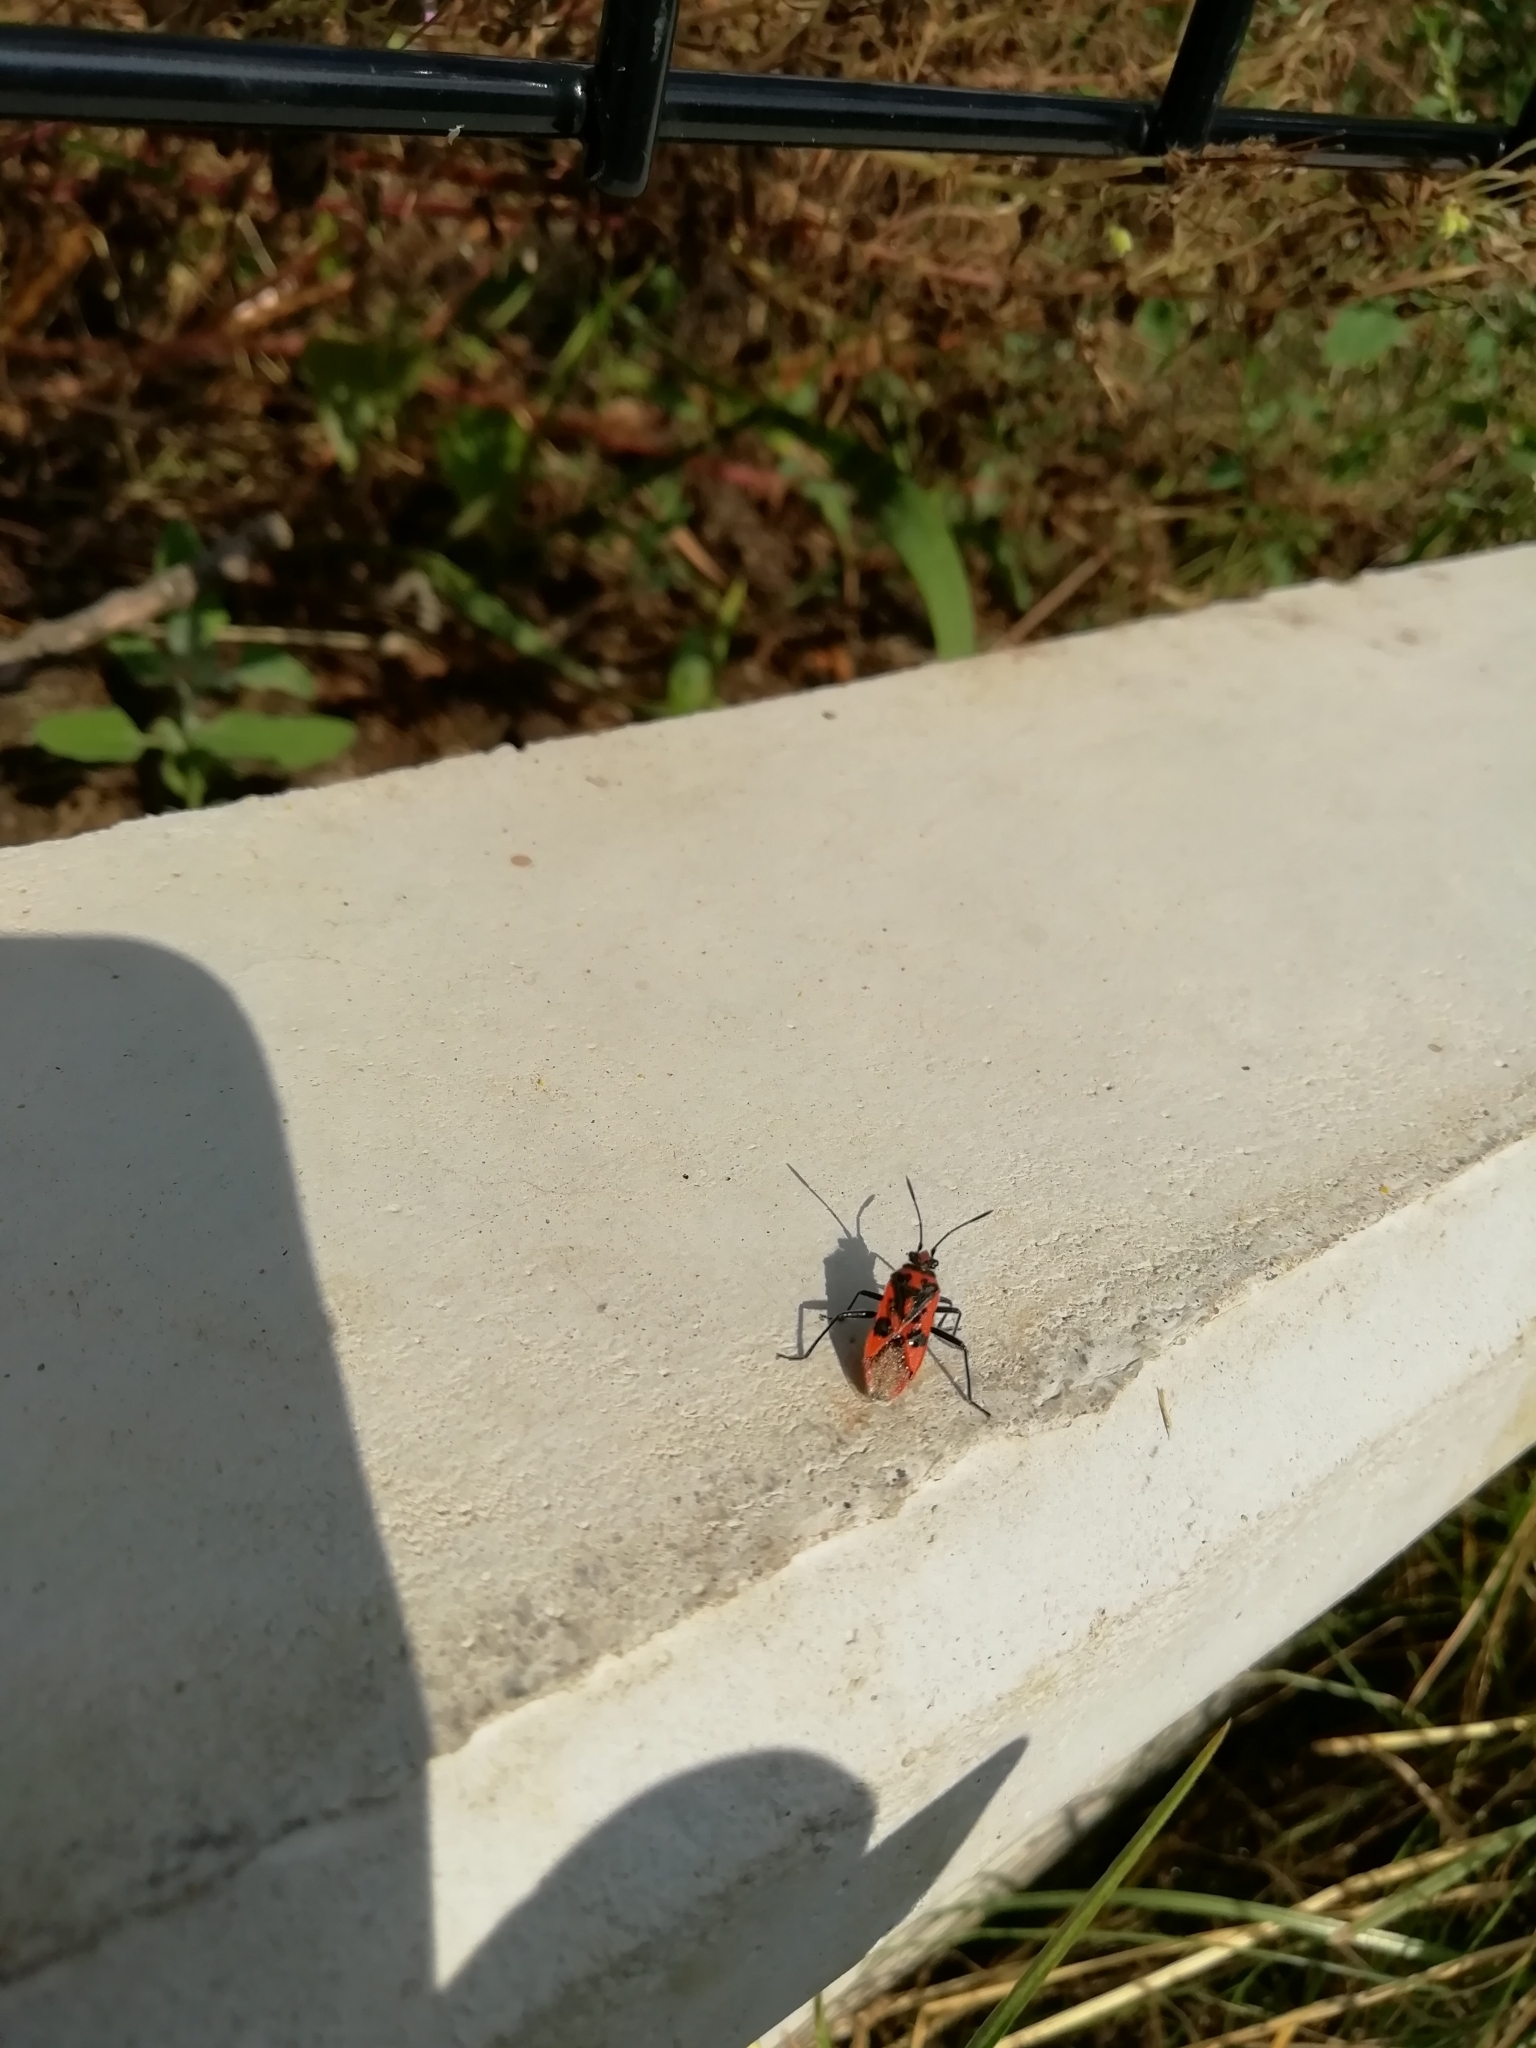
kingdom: Animalia
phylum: Arthropoda
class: Insecta
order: Hemiptera
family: Rhopalidae
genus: Corizus
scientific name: Corizus hyoscyami
